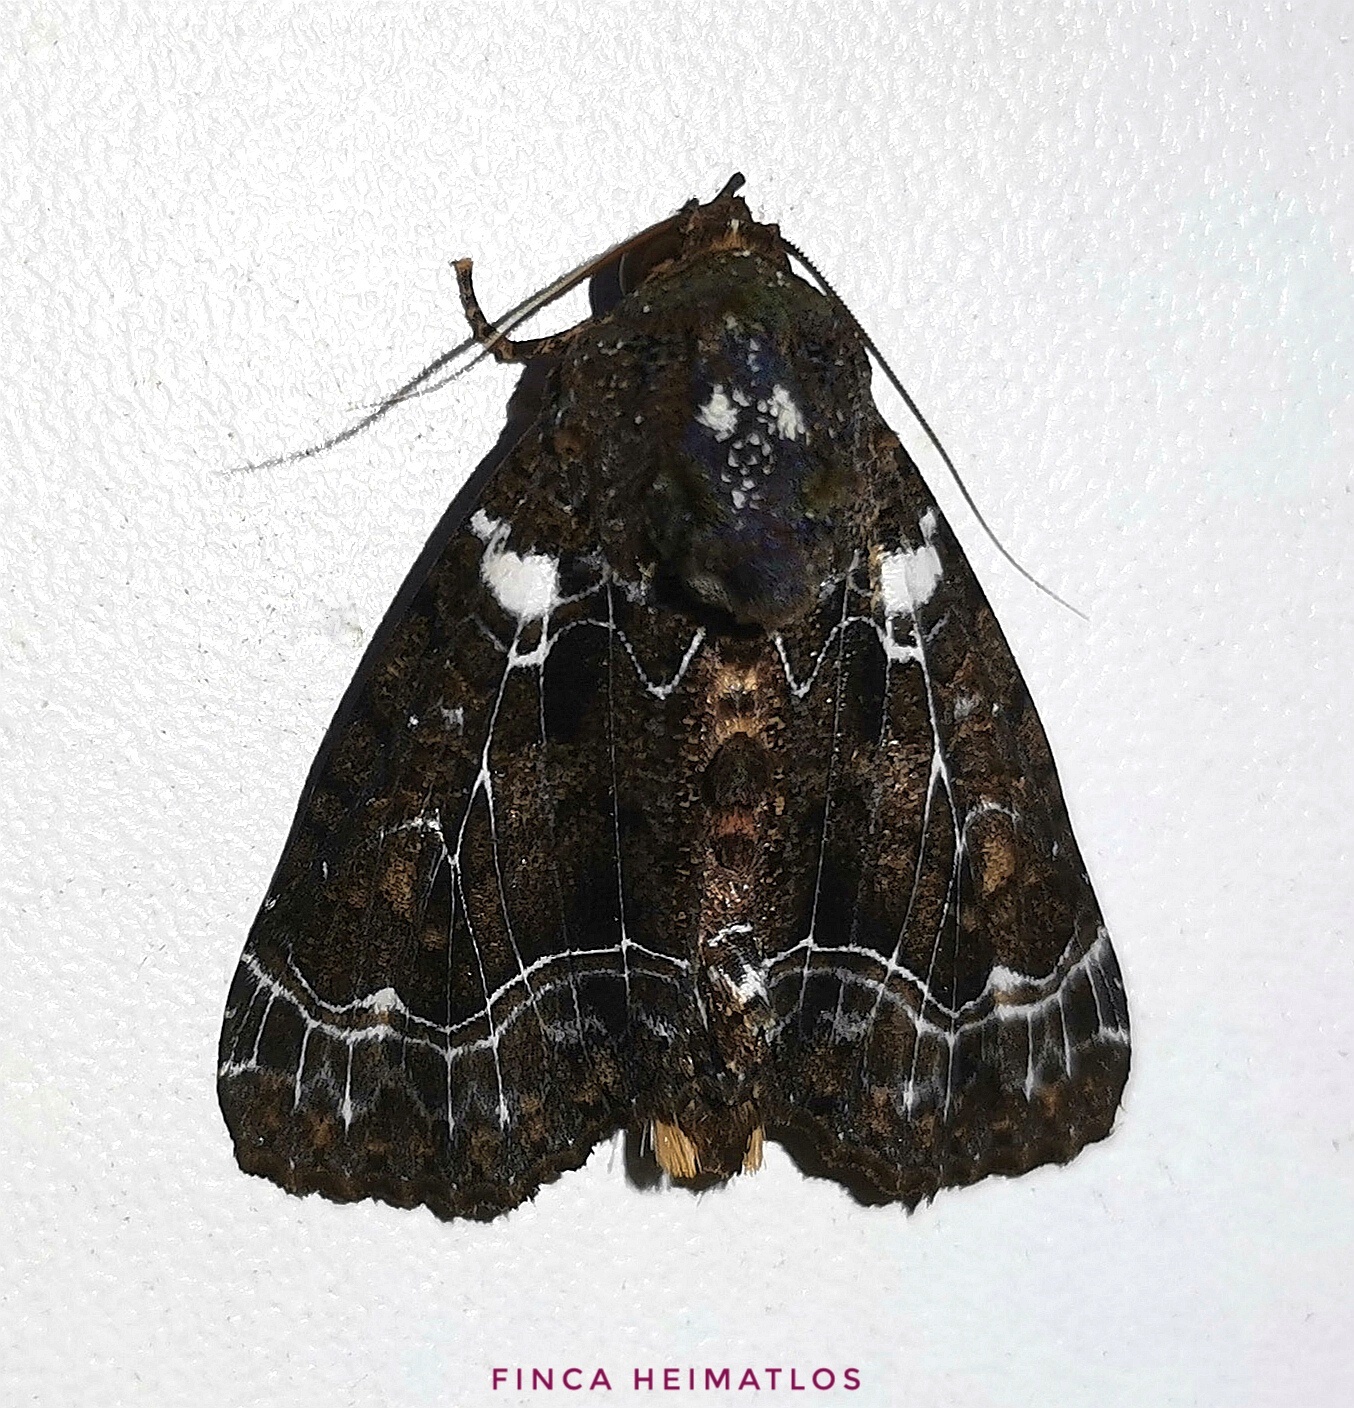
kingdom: Animalia
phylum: Arthropoda
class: Insecta
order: Lepidoptera
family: Noctuidae
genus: Cropia
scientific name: Cropia phila
